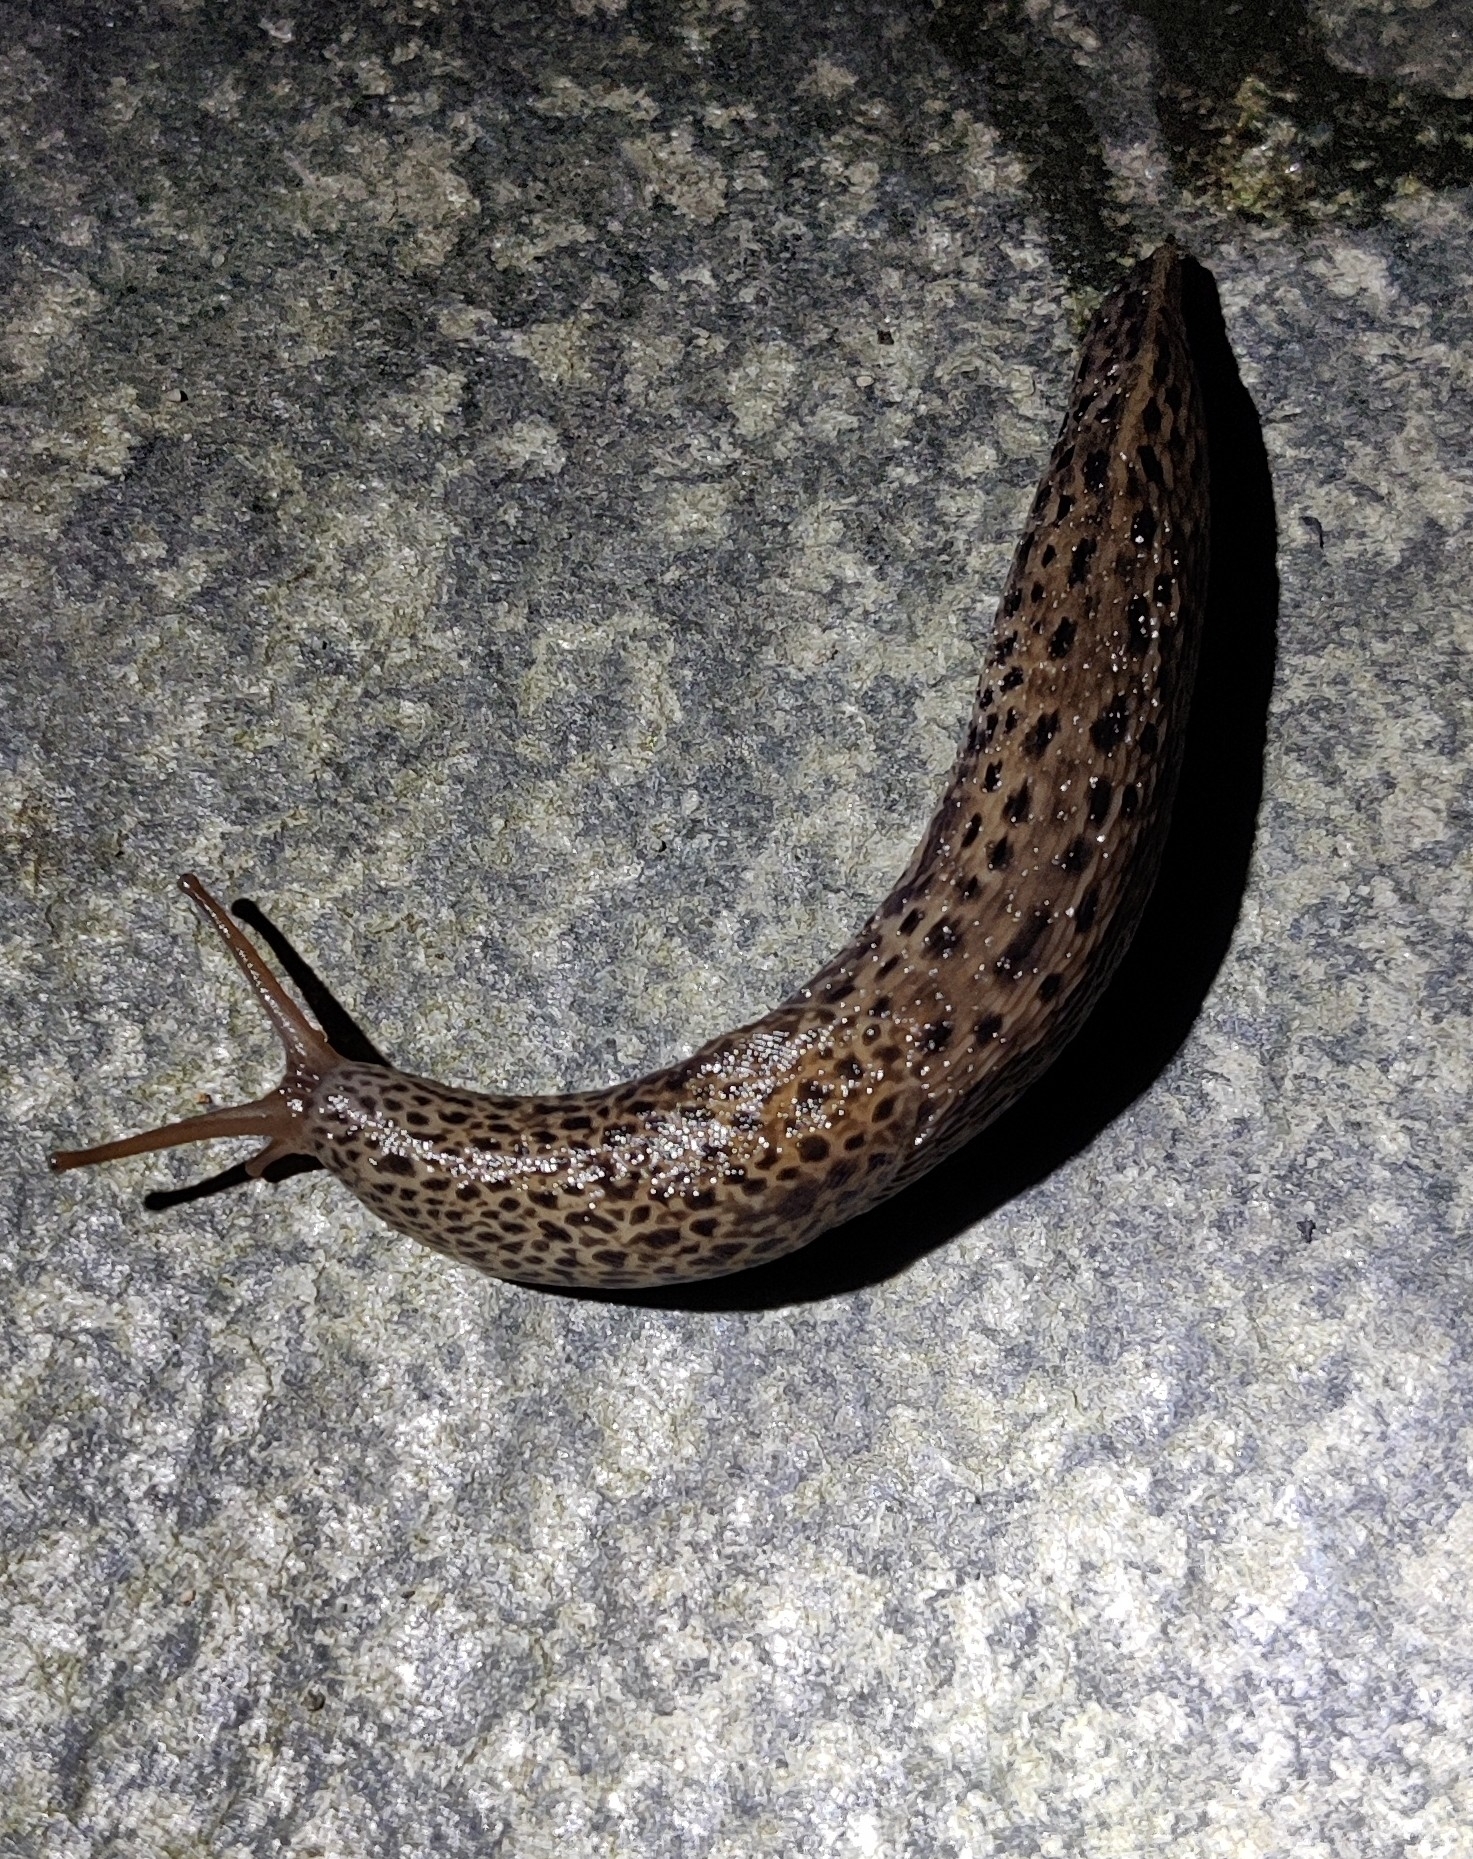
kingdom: Animalia
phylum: Mollusca
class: Gastropoda
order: Stylommatophora
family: Limacidae
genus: Limax
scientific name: Limax maximus
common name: Great grey slug
